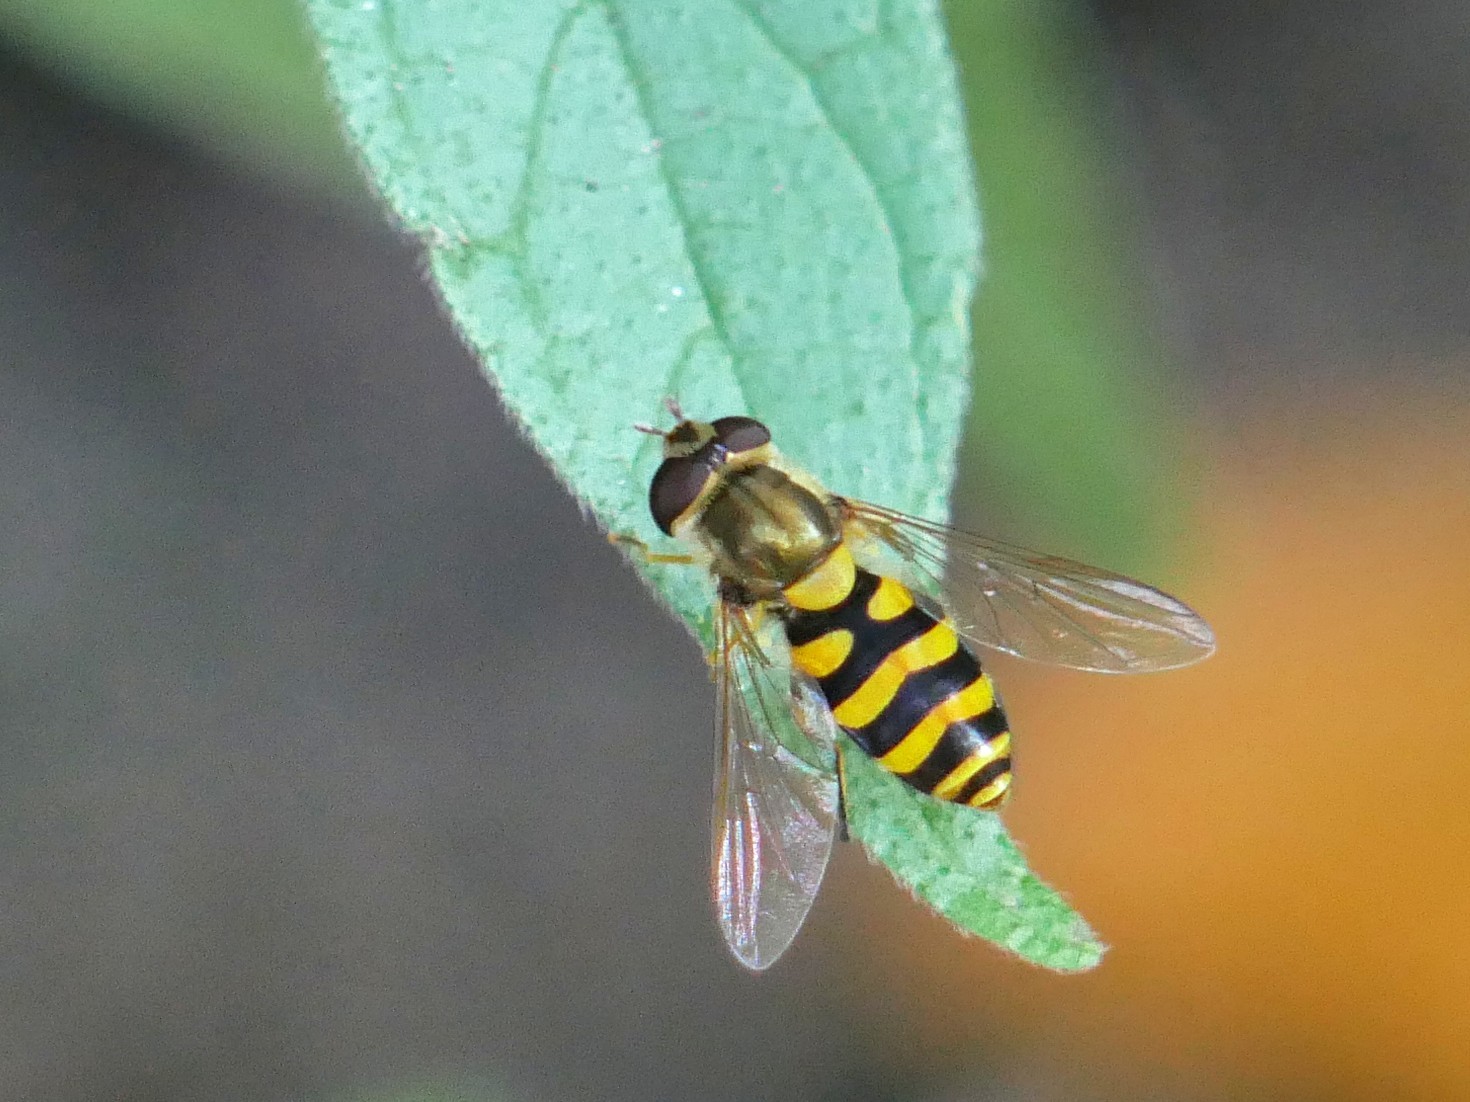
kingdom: Animalia
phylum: Arthropoda
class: Insecta
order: Diptera
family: Syrphidae
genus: Syrphus
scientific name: Syrphus
